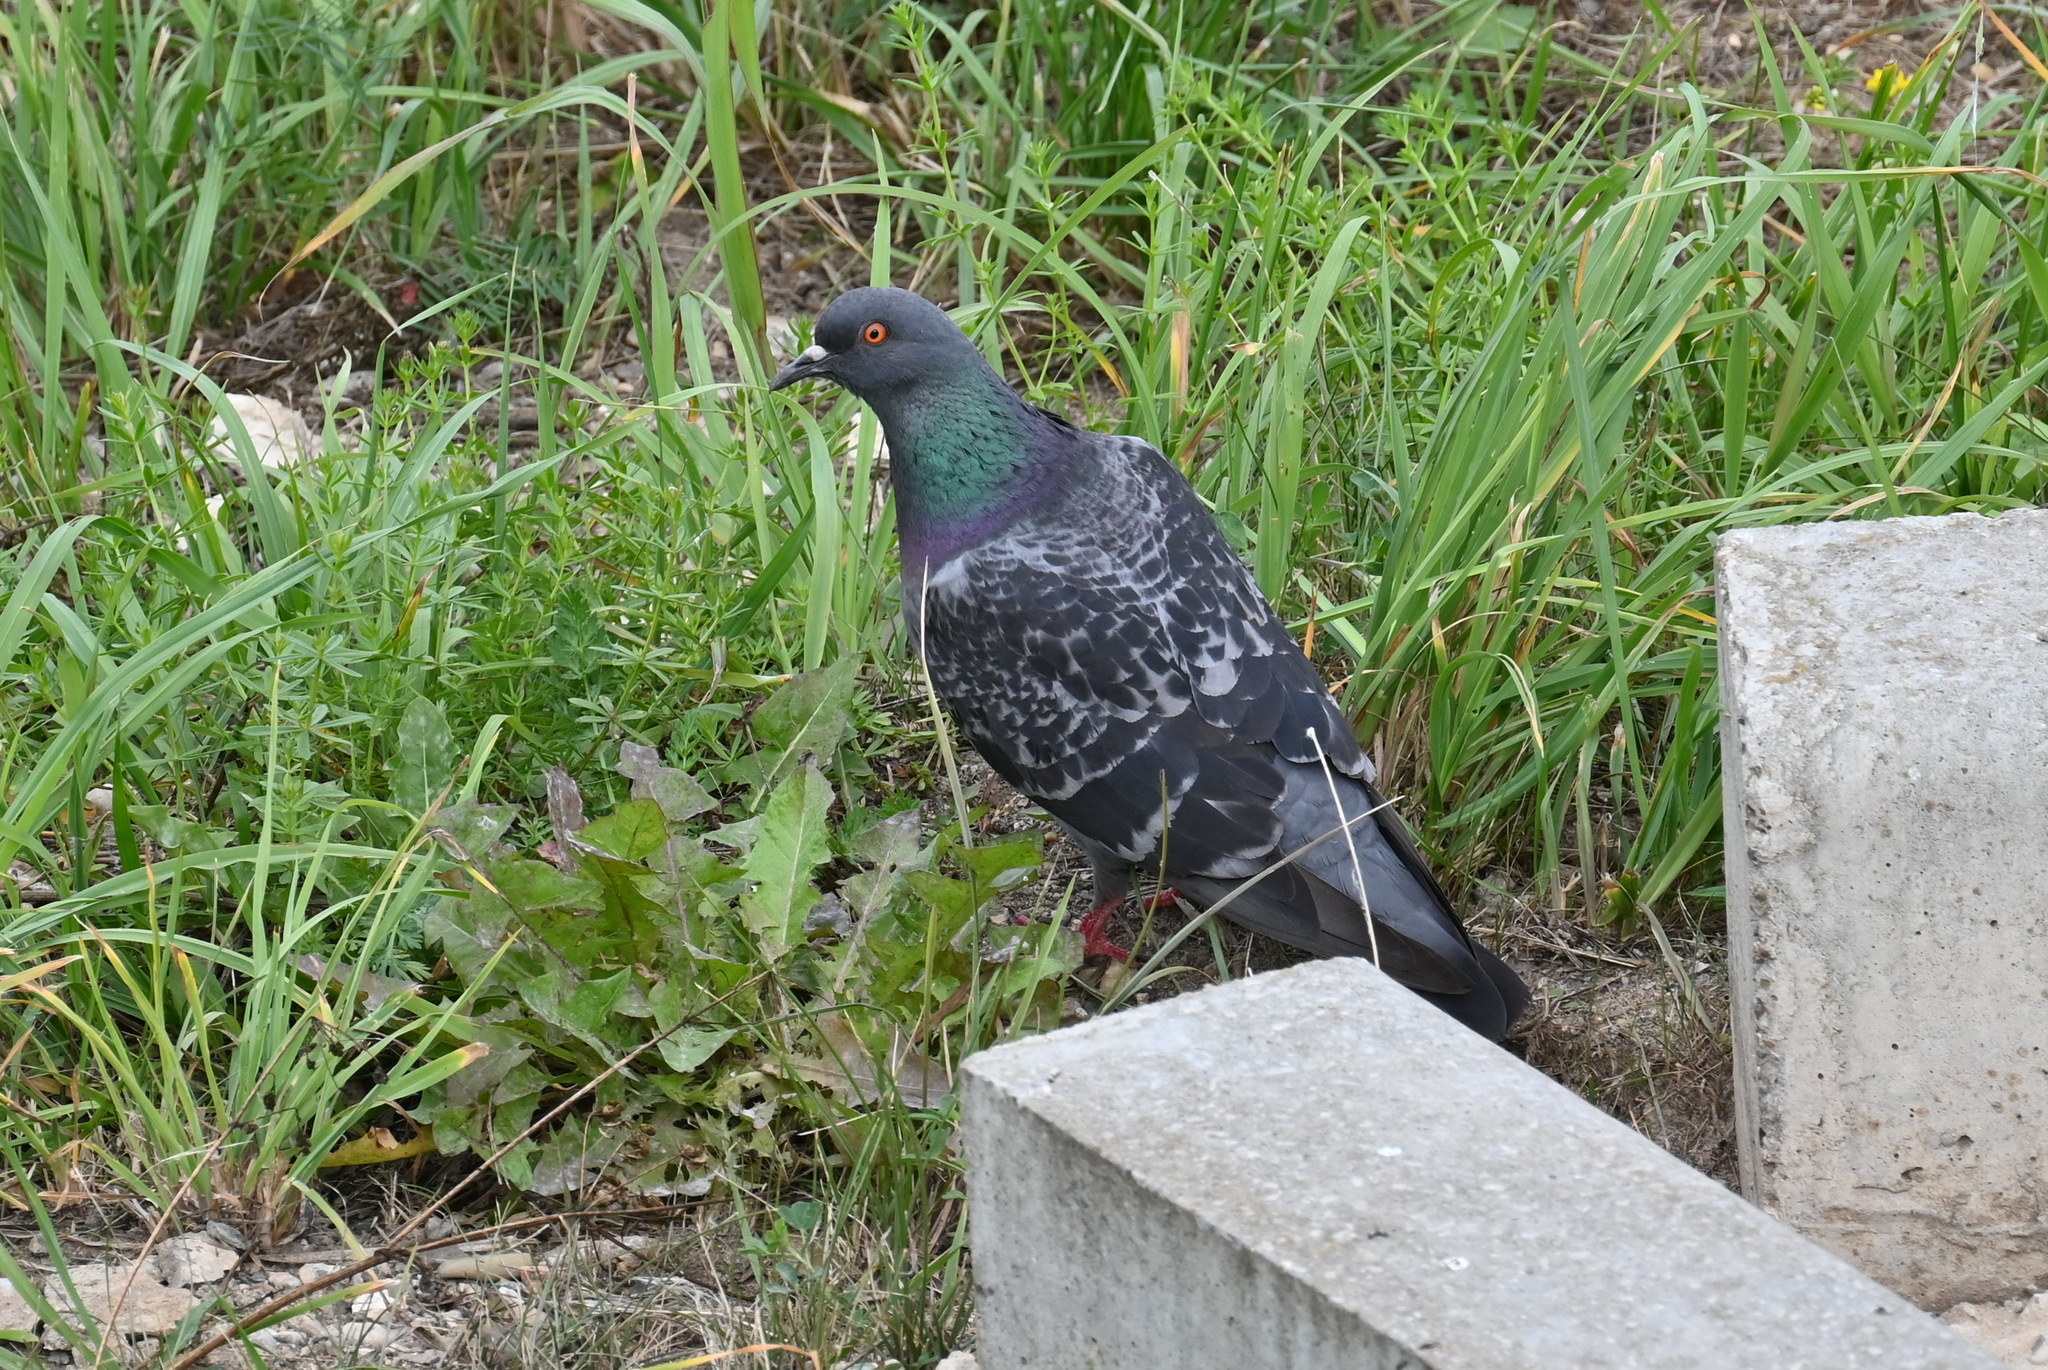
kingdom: Animalia
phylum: Chordata
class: Aves
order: Columbiformes
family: Columbidae
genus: Columba
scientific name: Columba livia
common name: Rock pigeon
